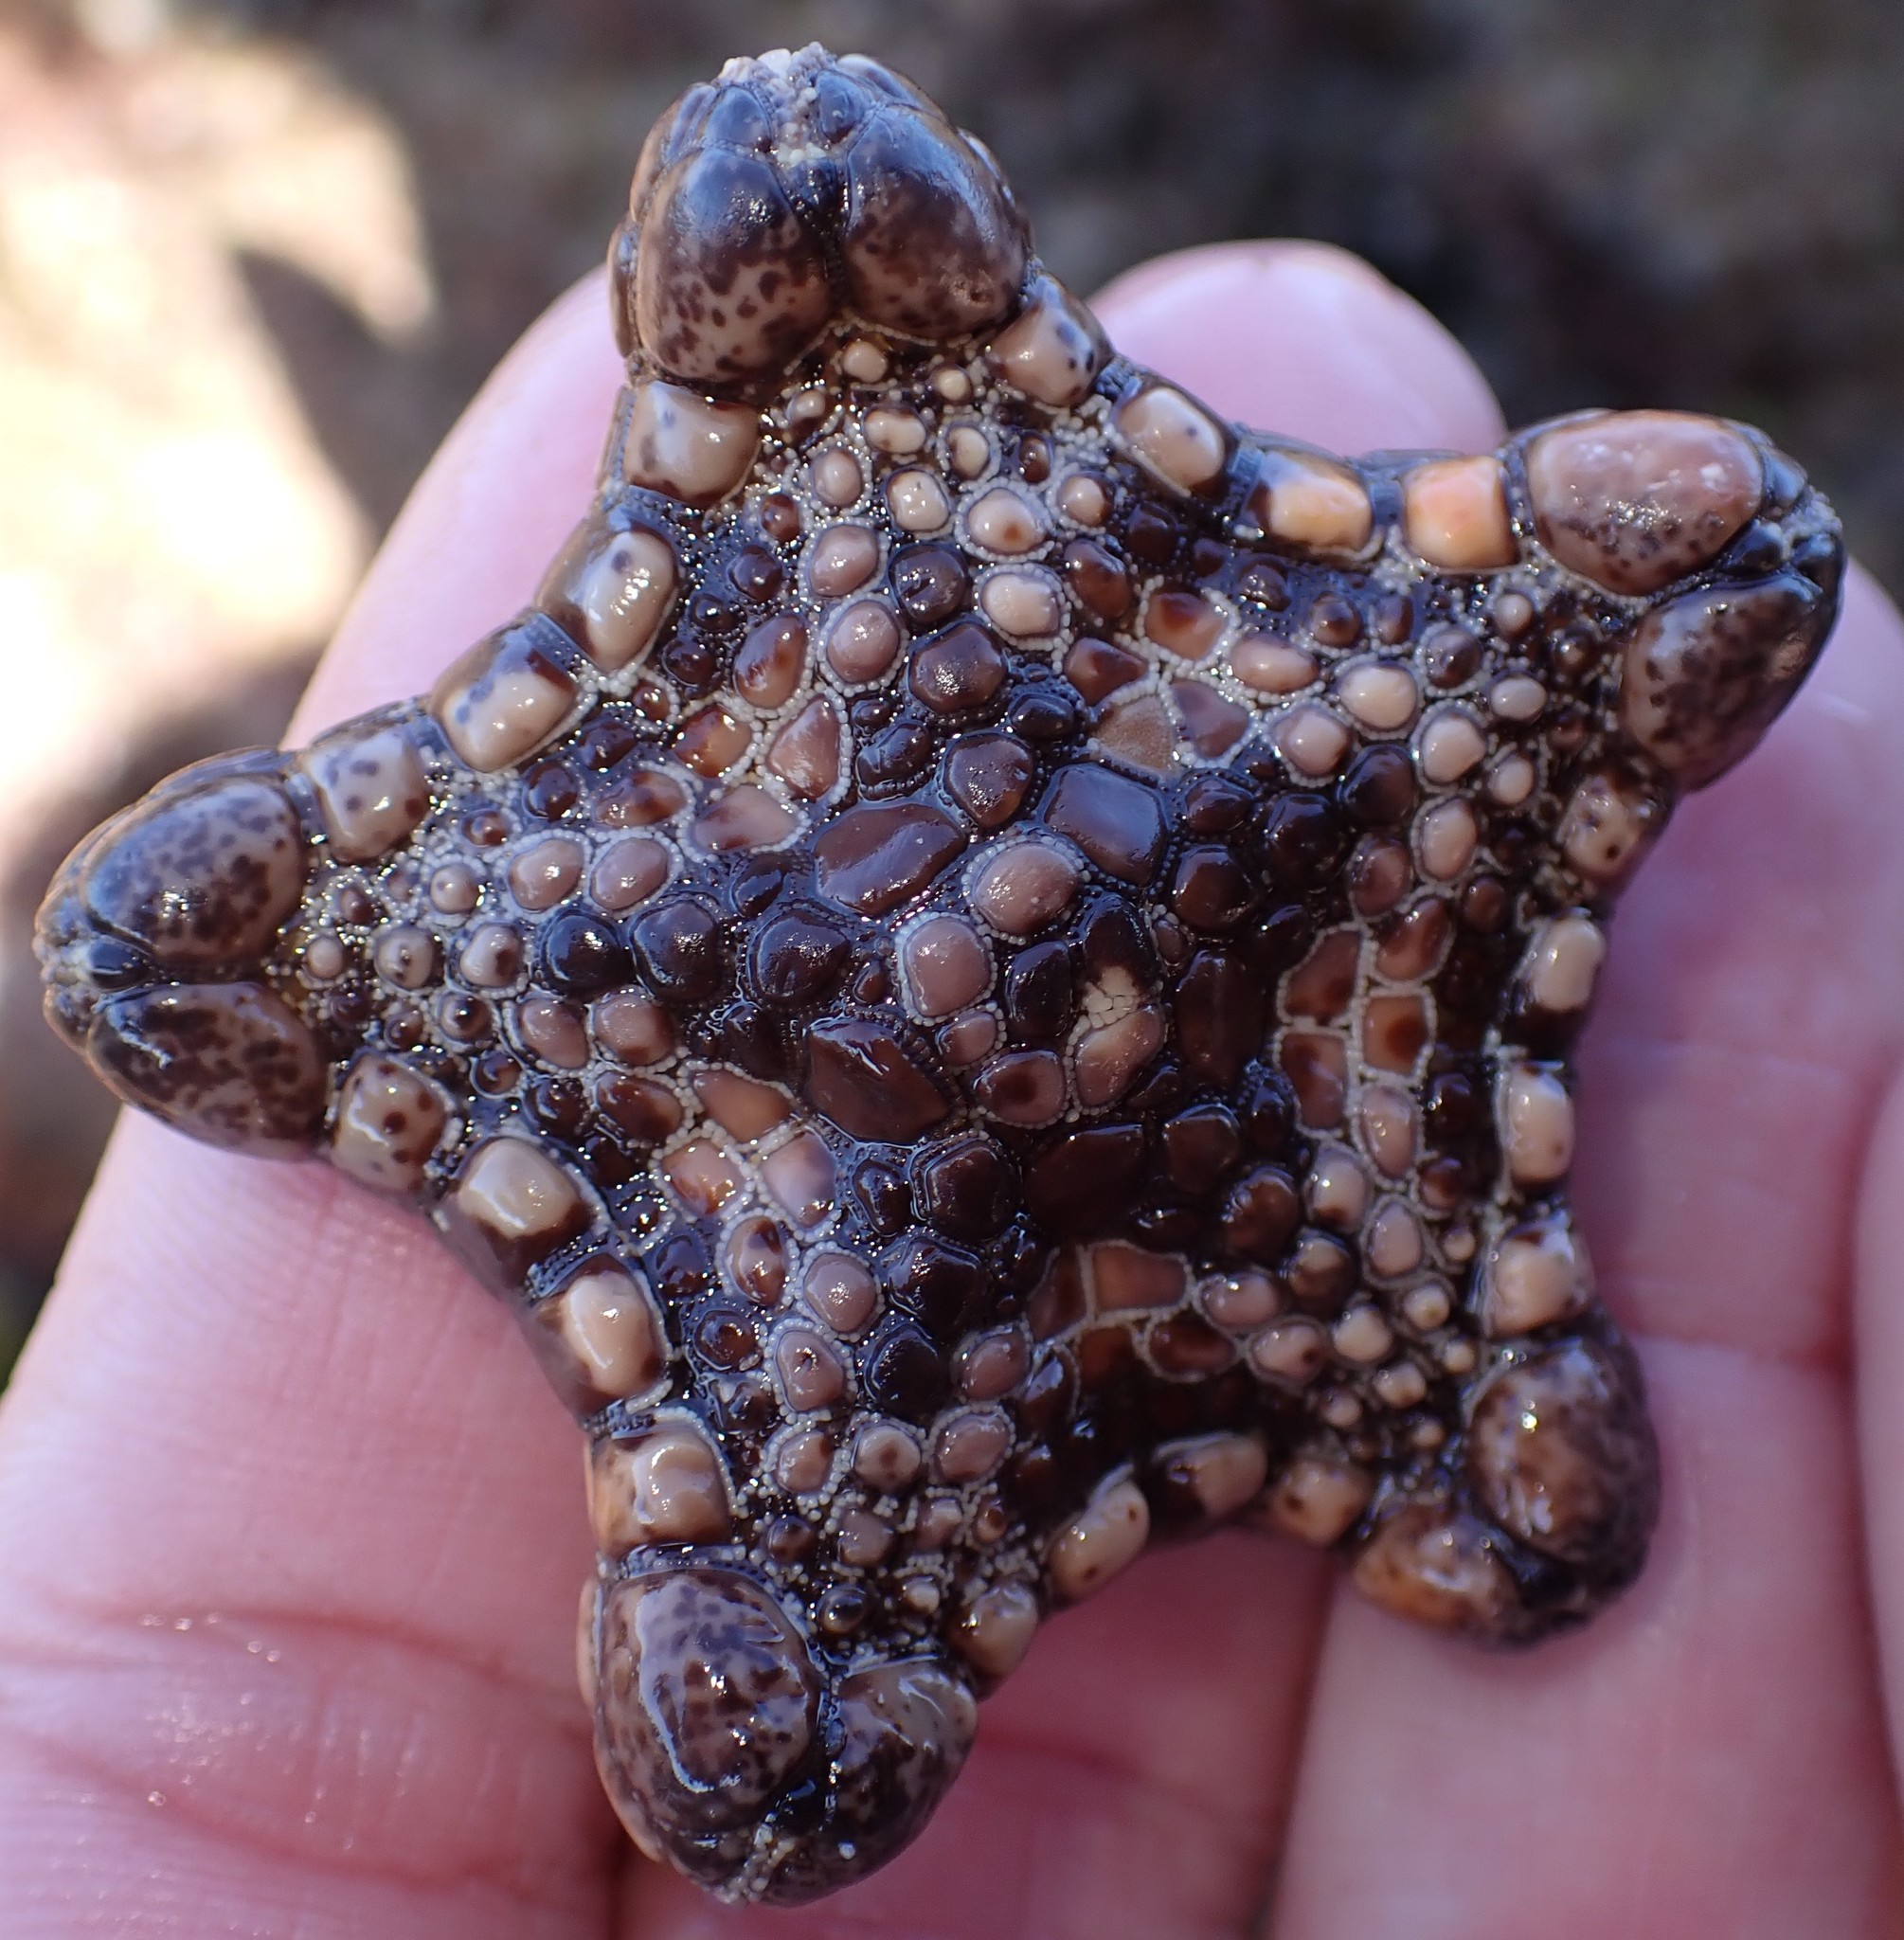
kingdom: Animalia
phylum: Echinodermata
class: Asteroidea
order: Valvatida
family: Goniasteridae
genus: Tosia
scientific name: Tosia australis
